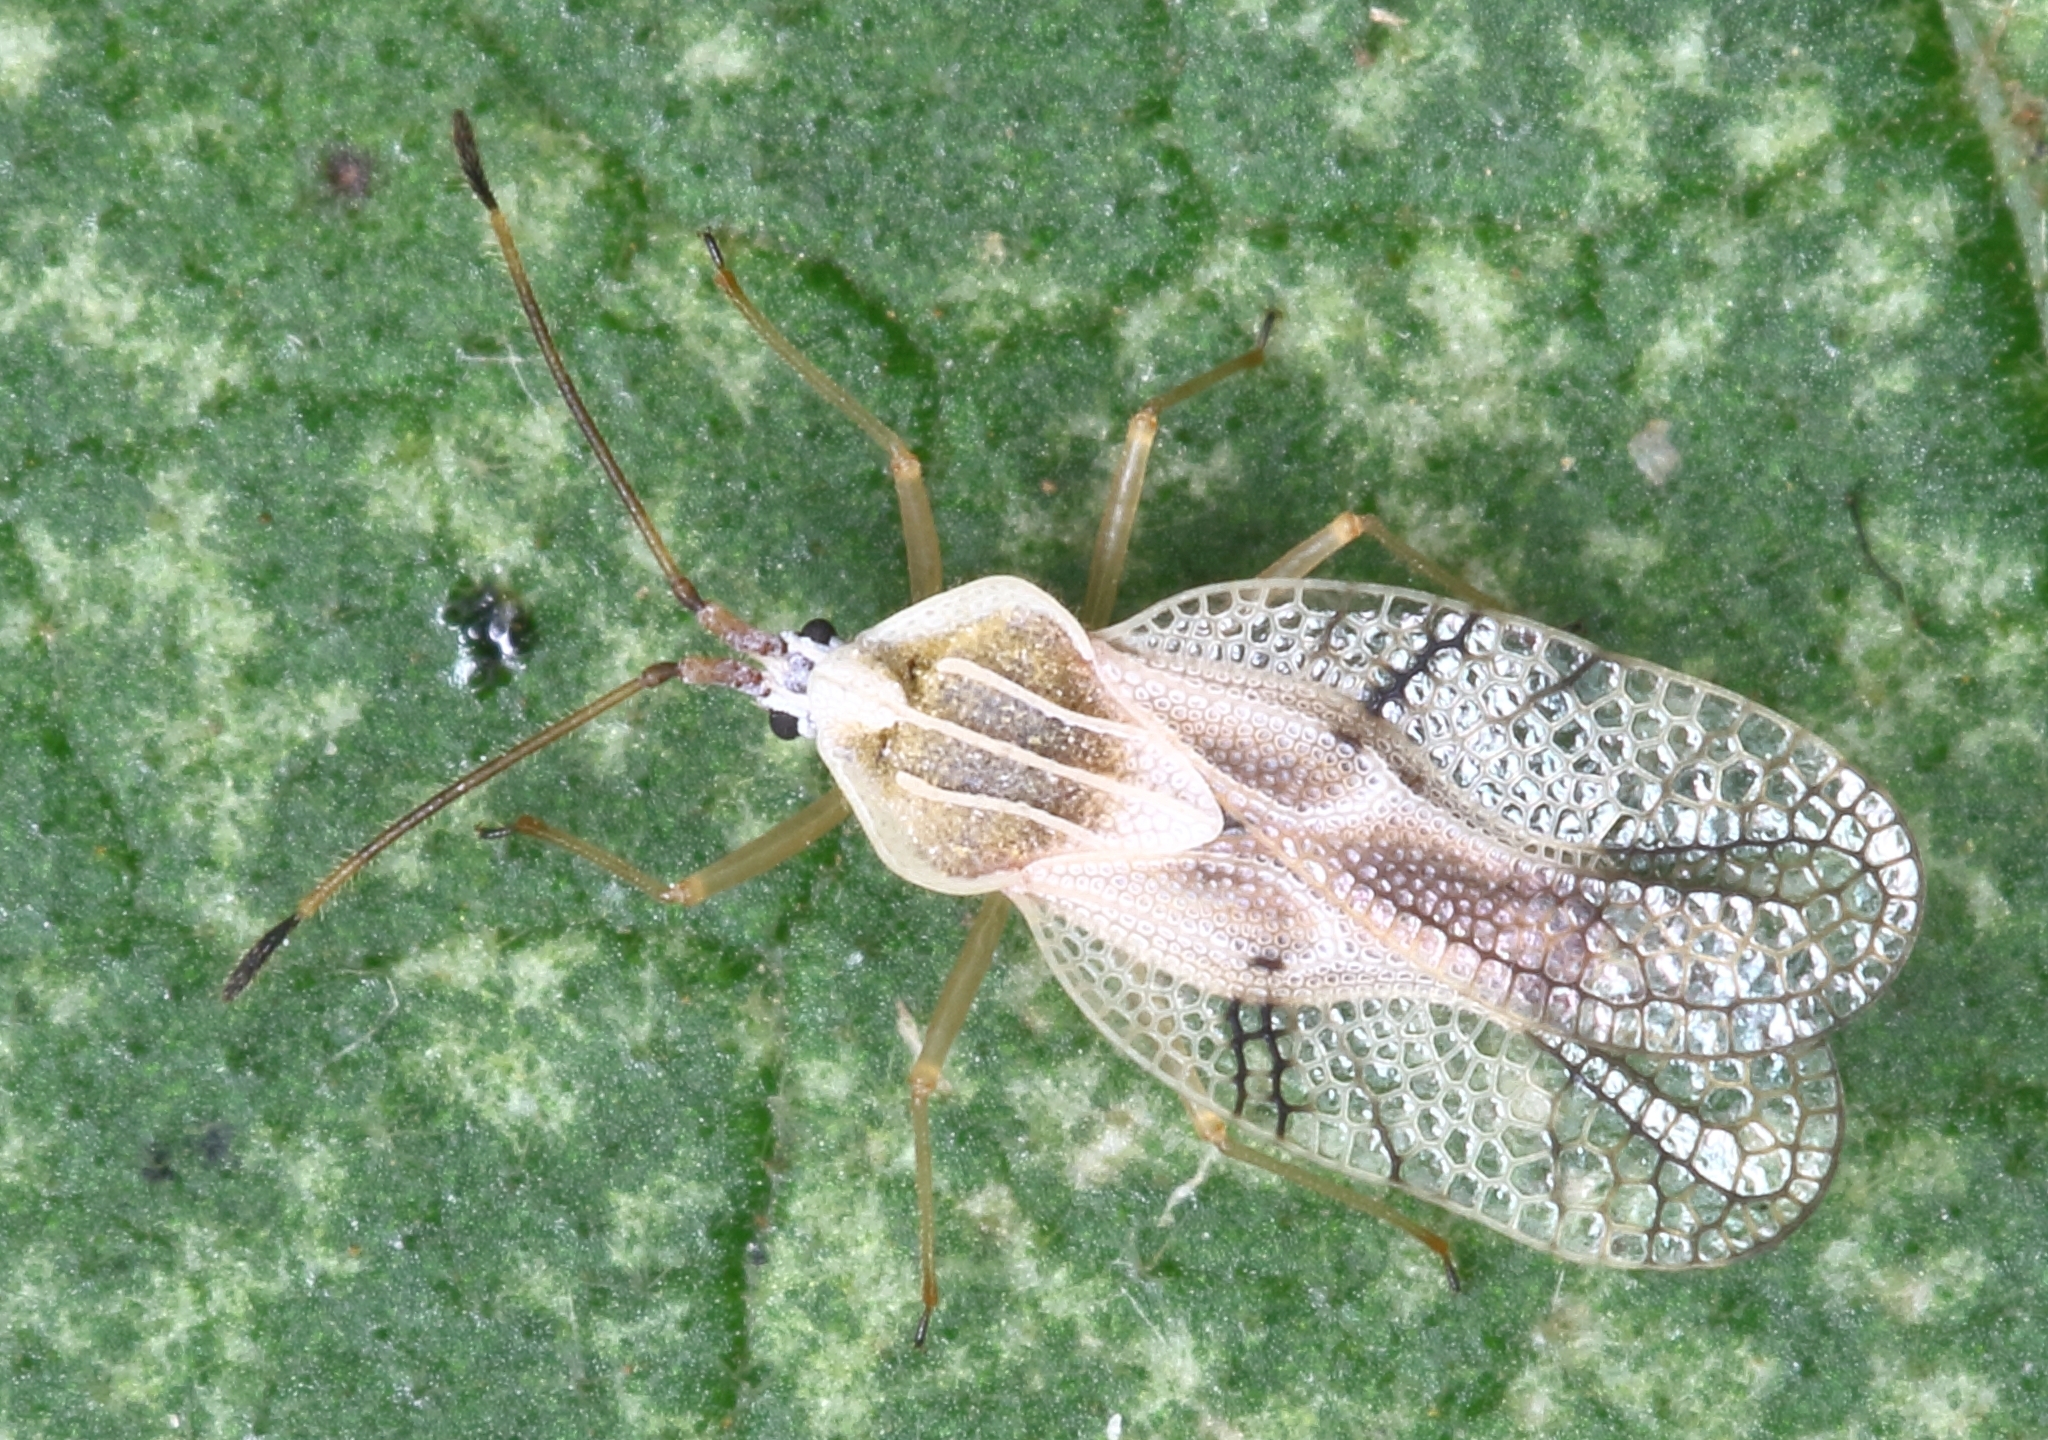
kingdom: Animalia
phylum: Arthropoda
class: Insecta
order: Hemiptera
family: Tingidae
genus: Gargaphia
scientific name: Gargaphia decoris
